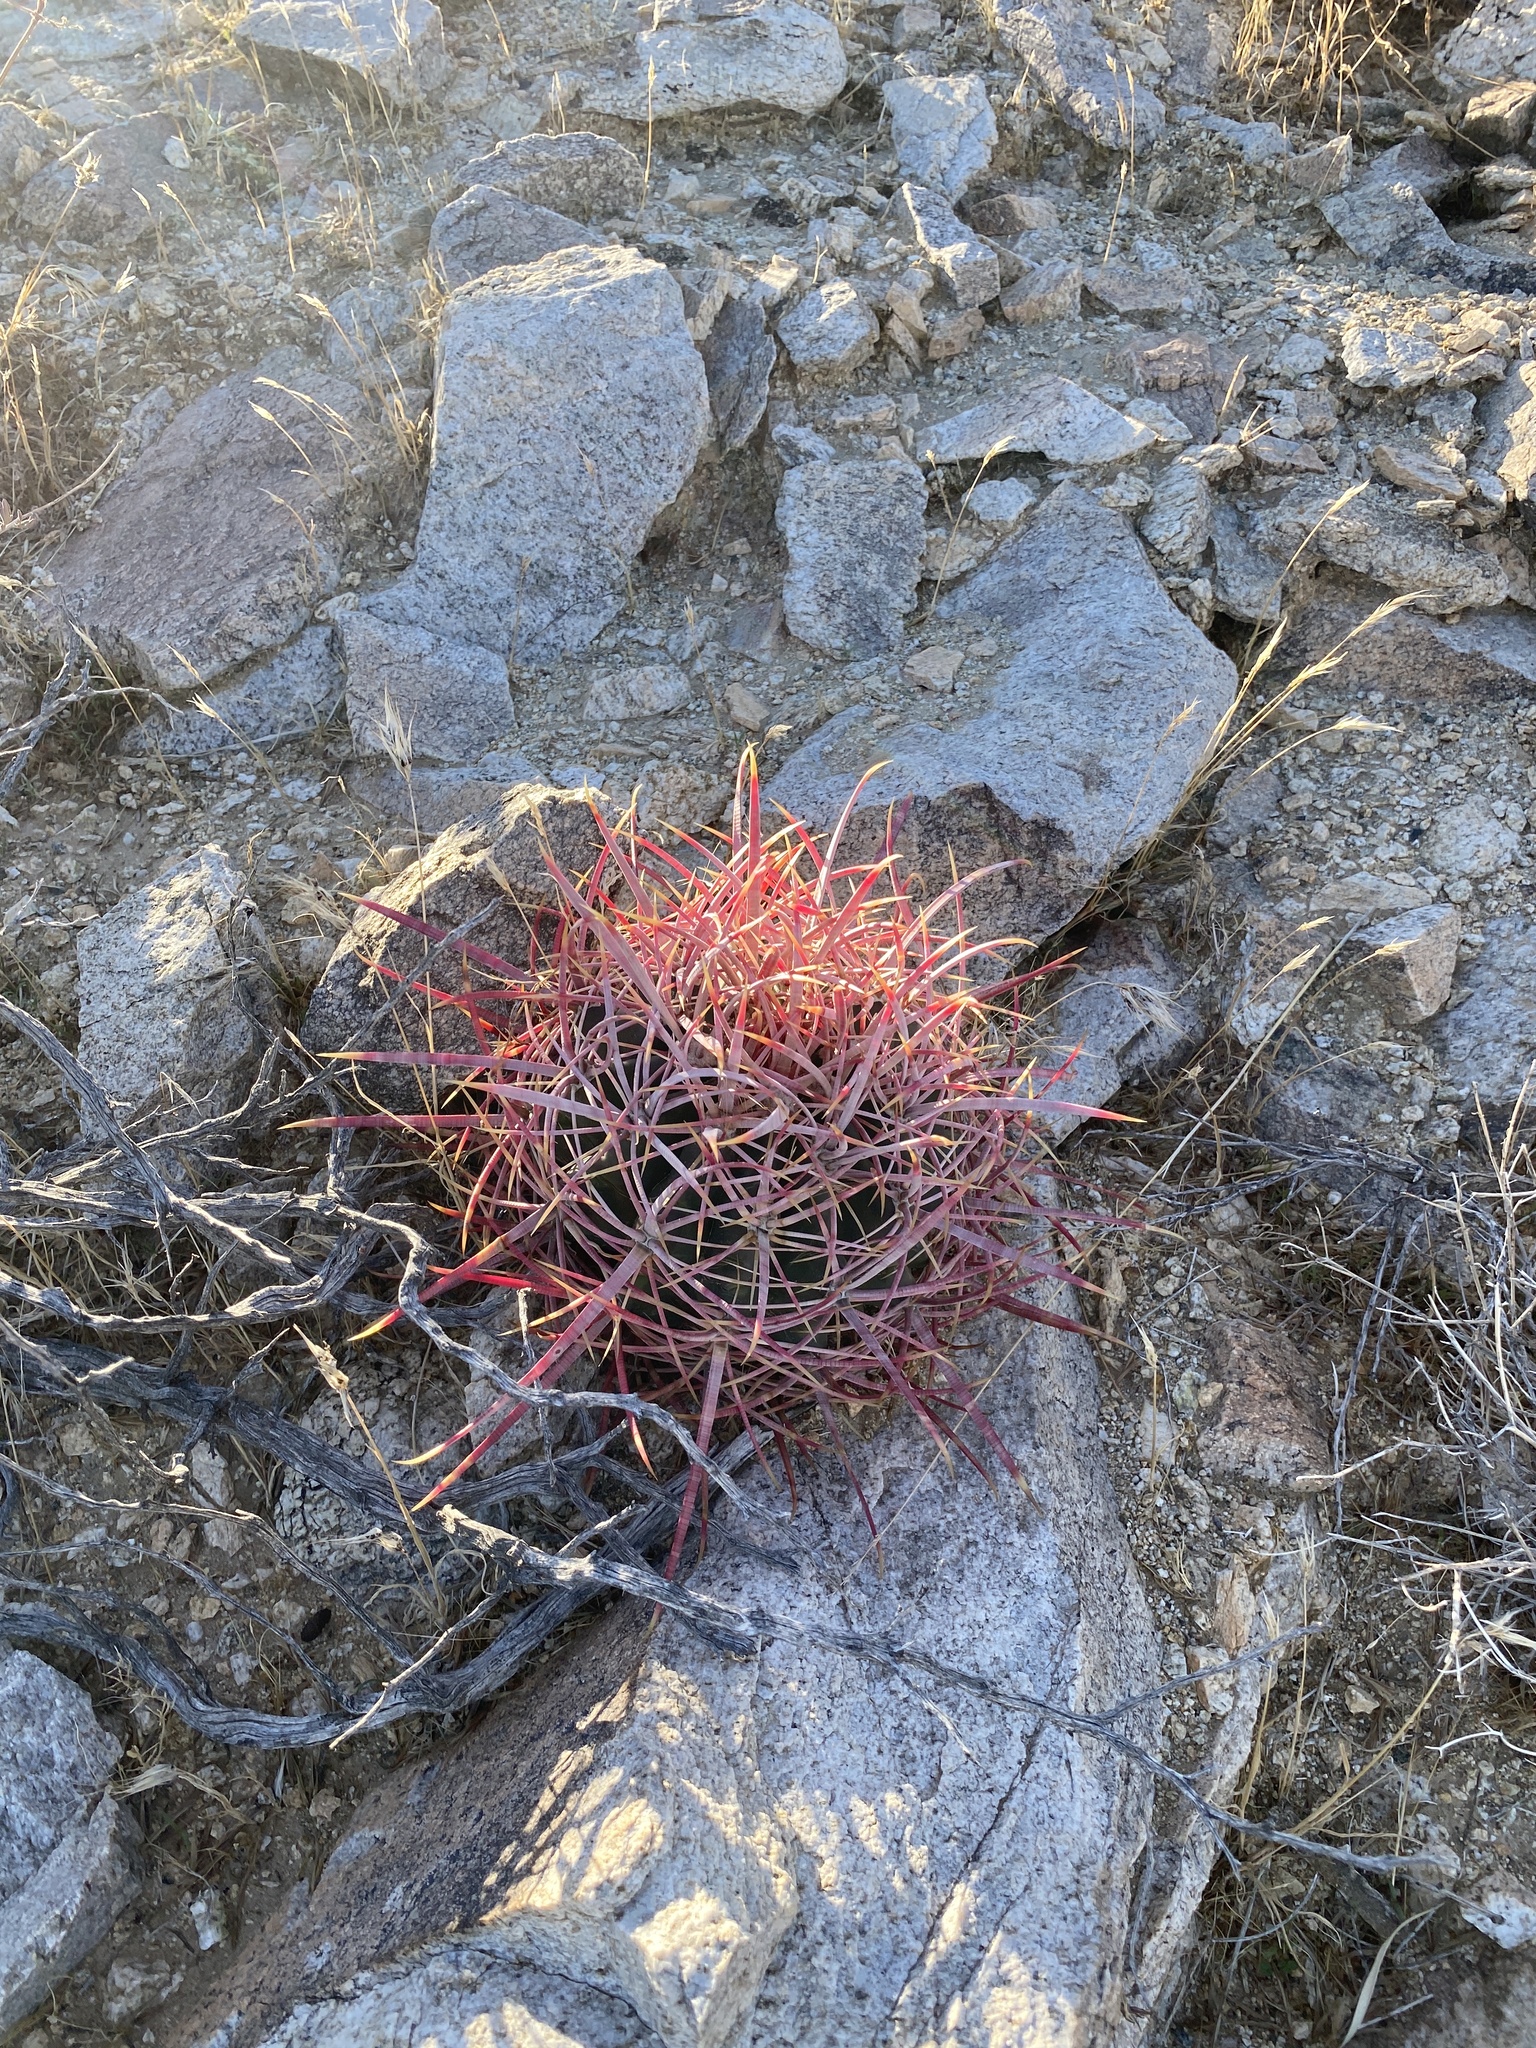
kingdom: Plantae
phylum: Tracheophyta
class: Magnoliopsida
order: Caryophyllales
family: Cactaceae
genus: Ferocactus
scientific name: Ferocactus cylindraceus
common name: California barrel cactus
